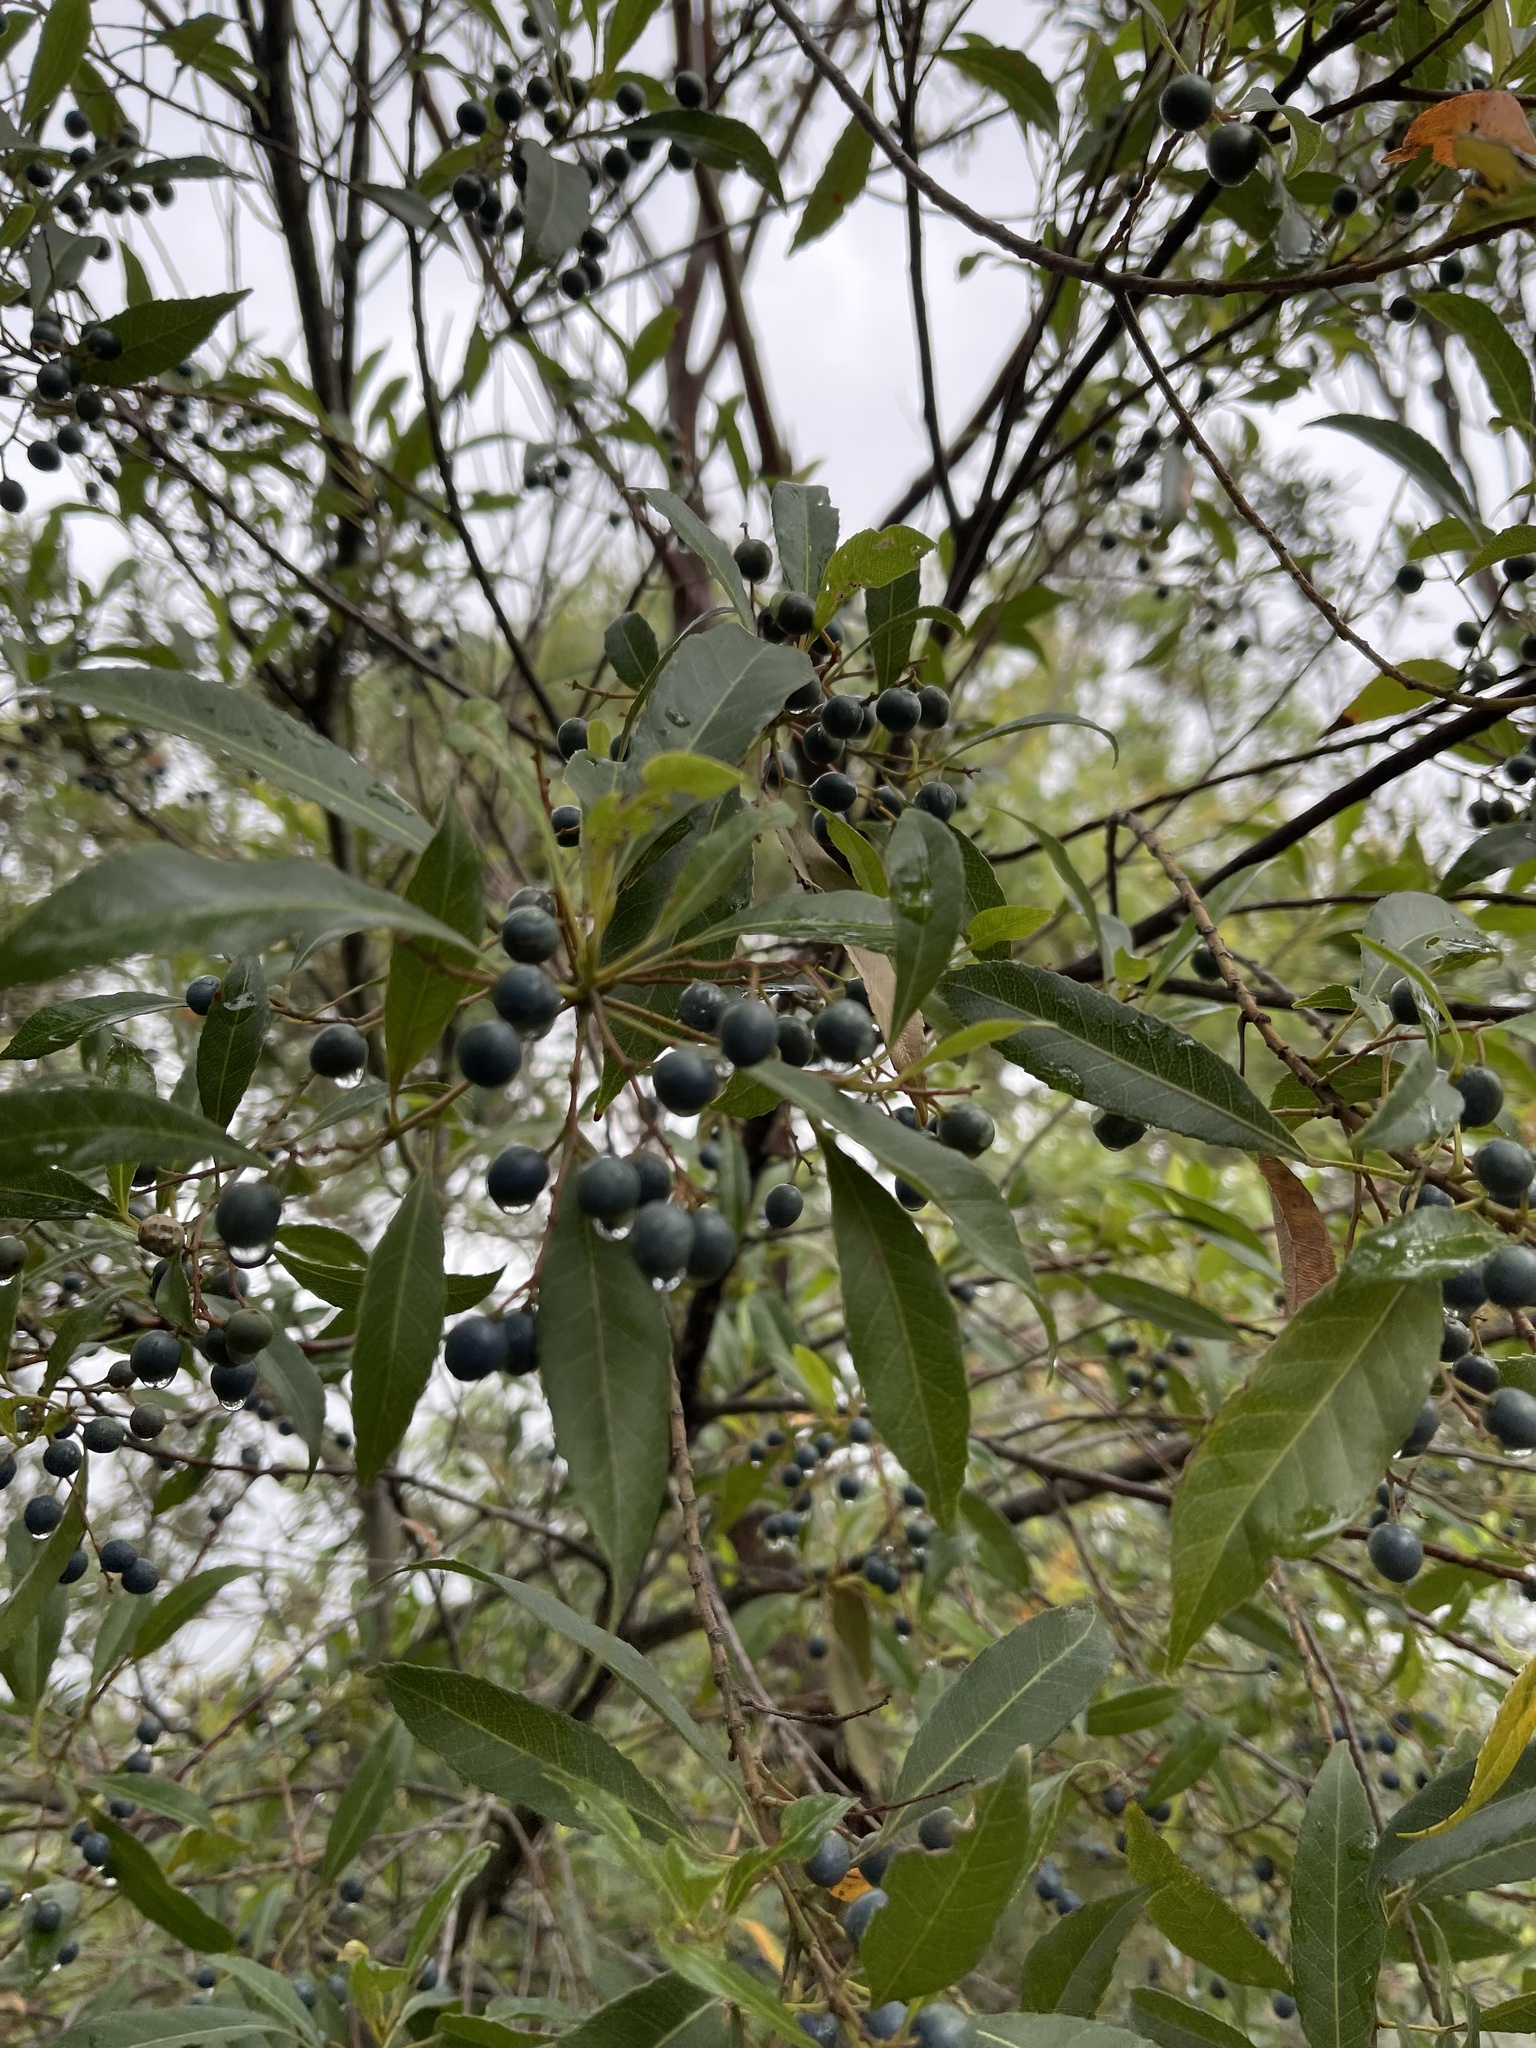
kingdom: Plantae
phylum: Tracheophyta
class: Magnoliopsida
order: Oxalidales
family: Elaeocarpaceae
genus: Elaeocarpus
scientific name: Elaeocarpus reticulatus
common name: Ash quandong
